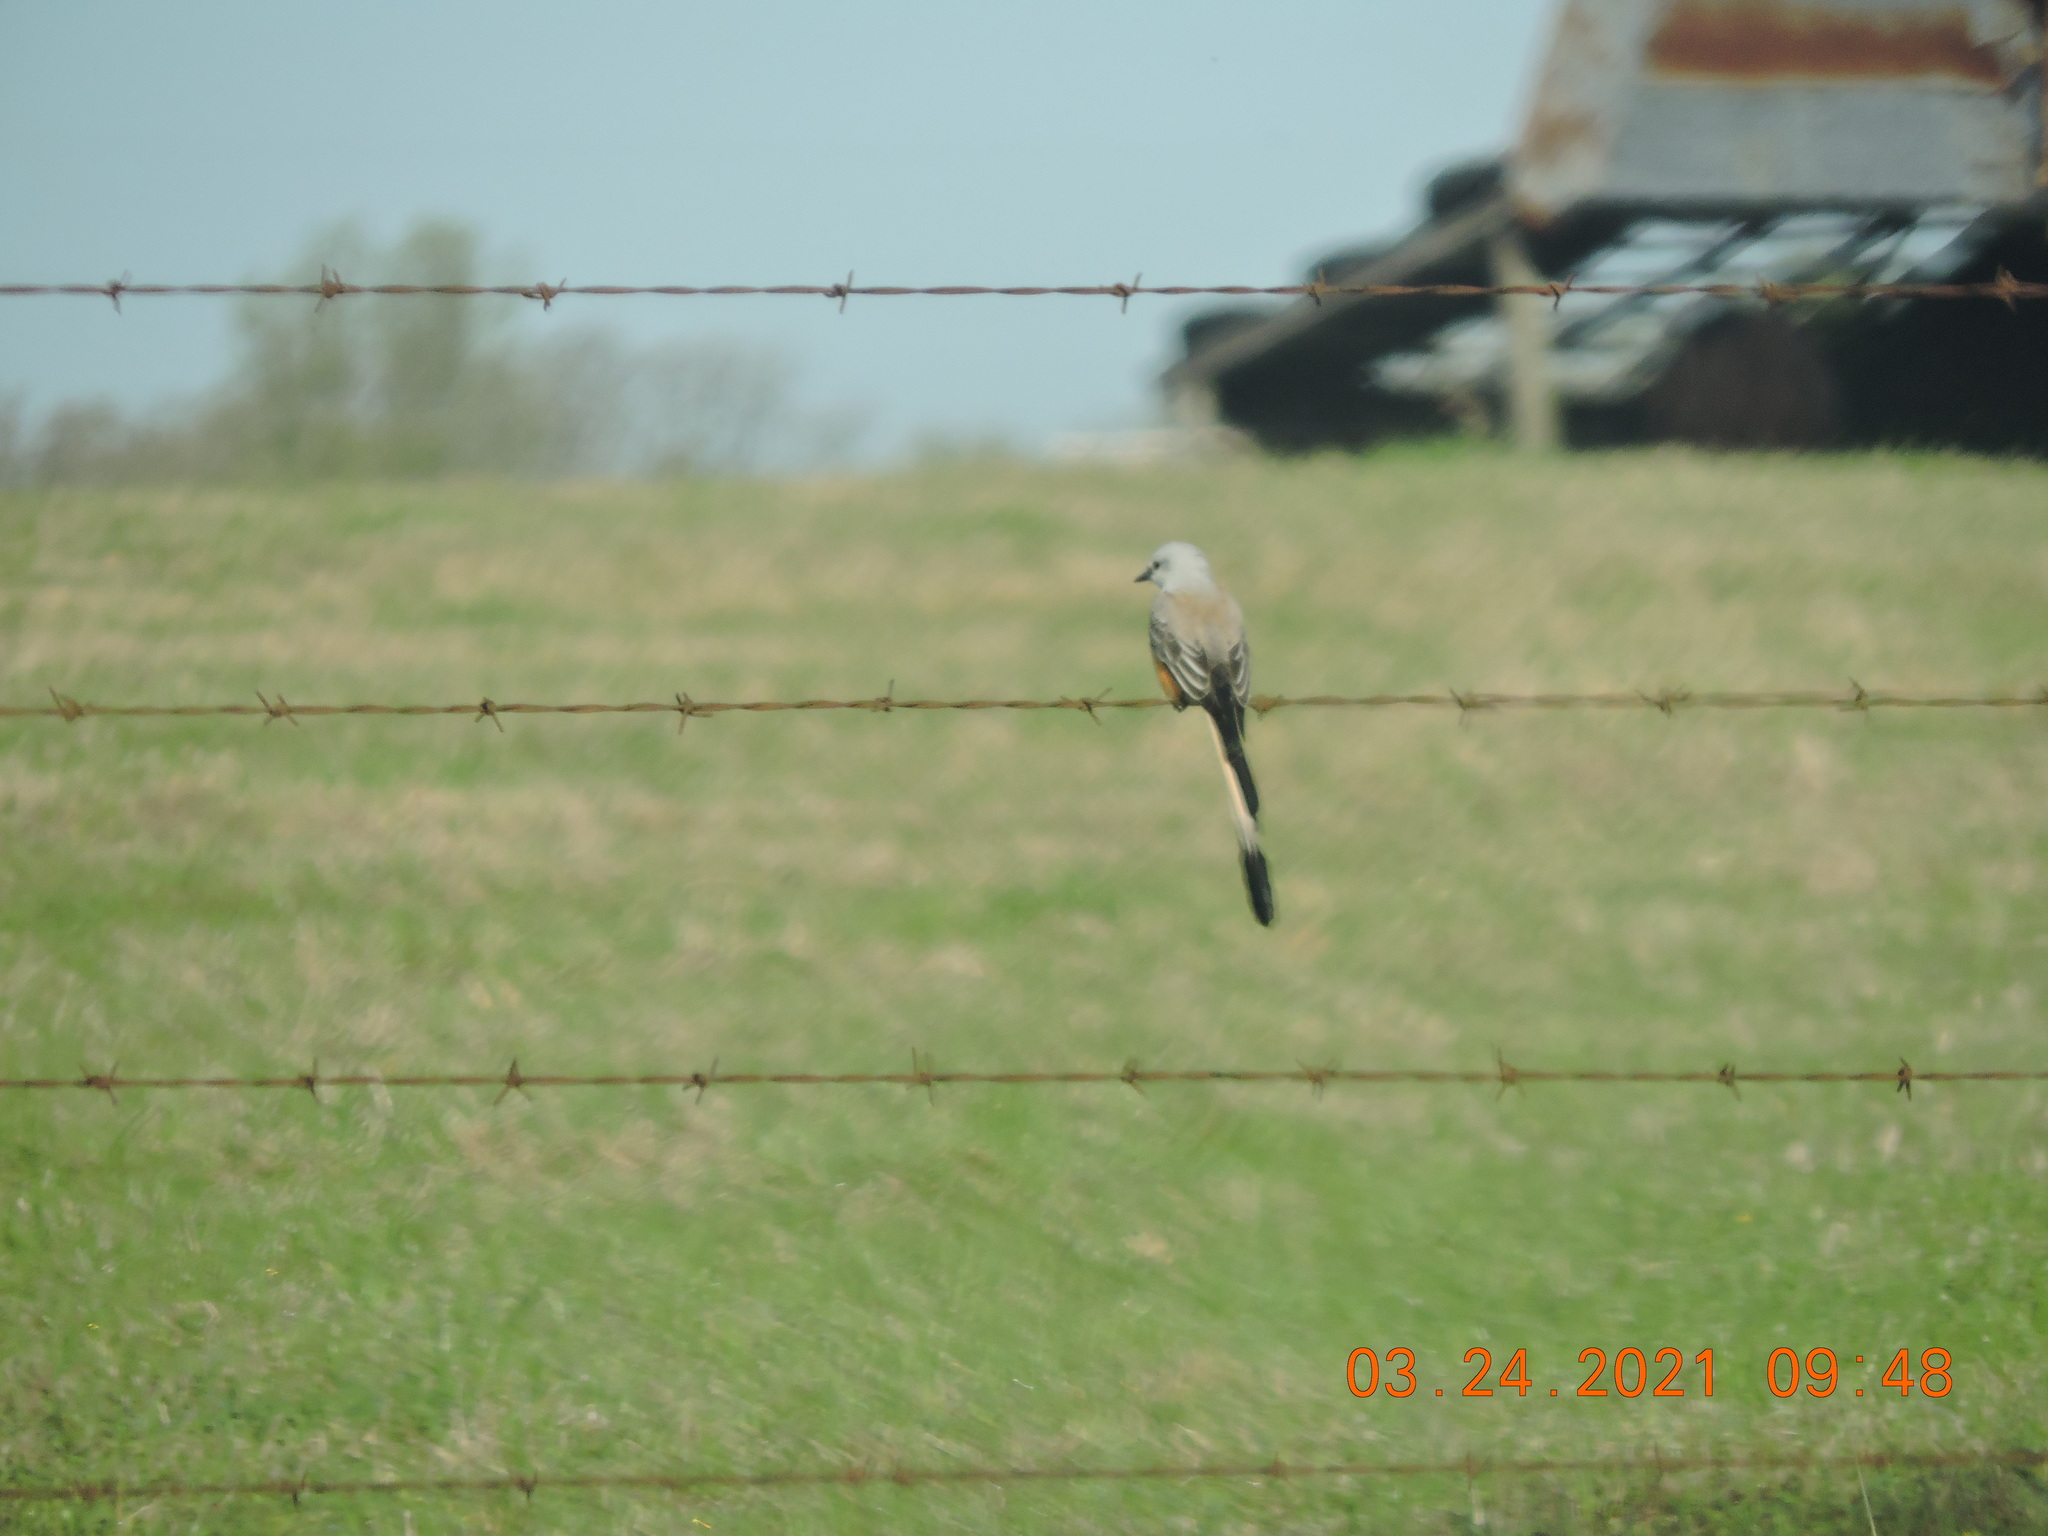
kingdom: Animalia
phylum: Chordata
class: Aves
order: Passeriformes
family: Tyrannidae
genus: Tyrannus
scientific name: Tyrannus forficatus
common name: Scissor-tailed flycatcher
